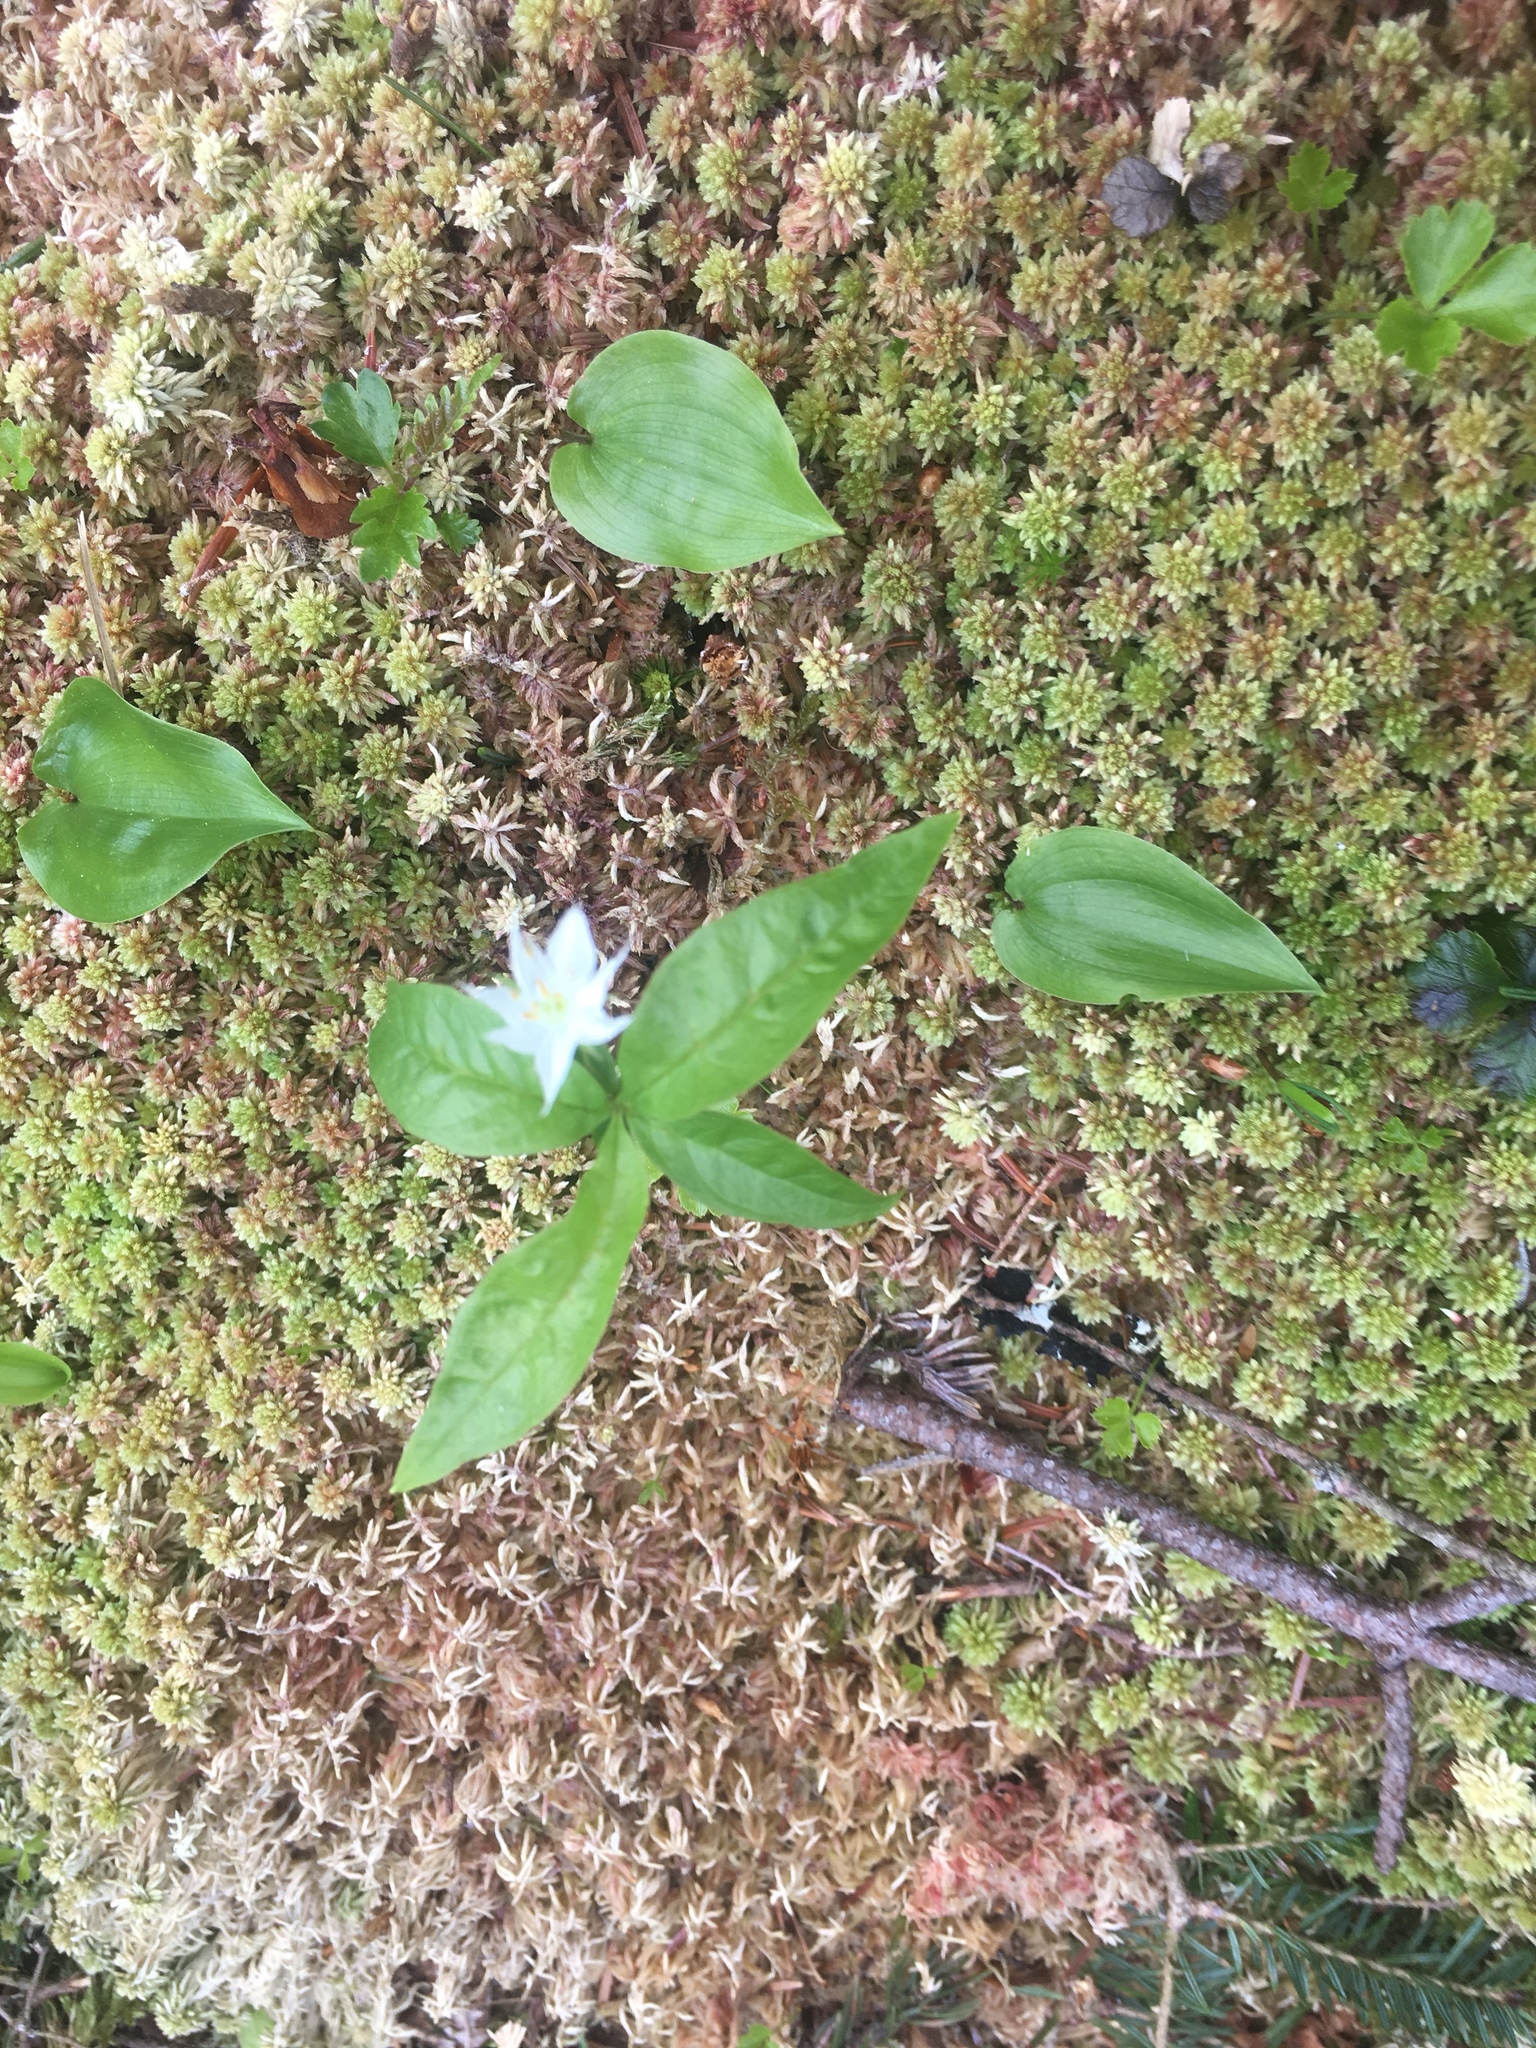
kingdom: Plantae
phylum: Tracheophyta
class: Magnoliopsida
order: Ericales
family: Primulaceae
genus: Lysimachia
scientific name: Lysimachia borealis
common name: American starflower
